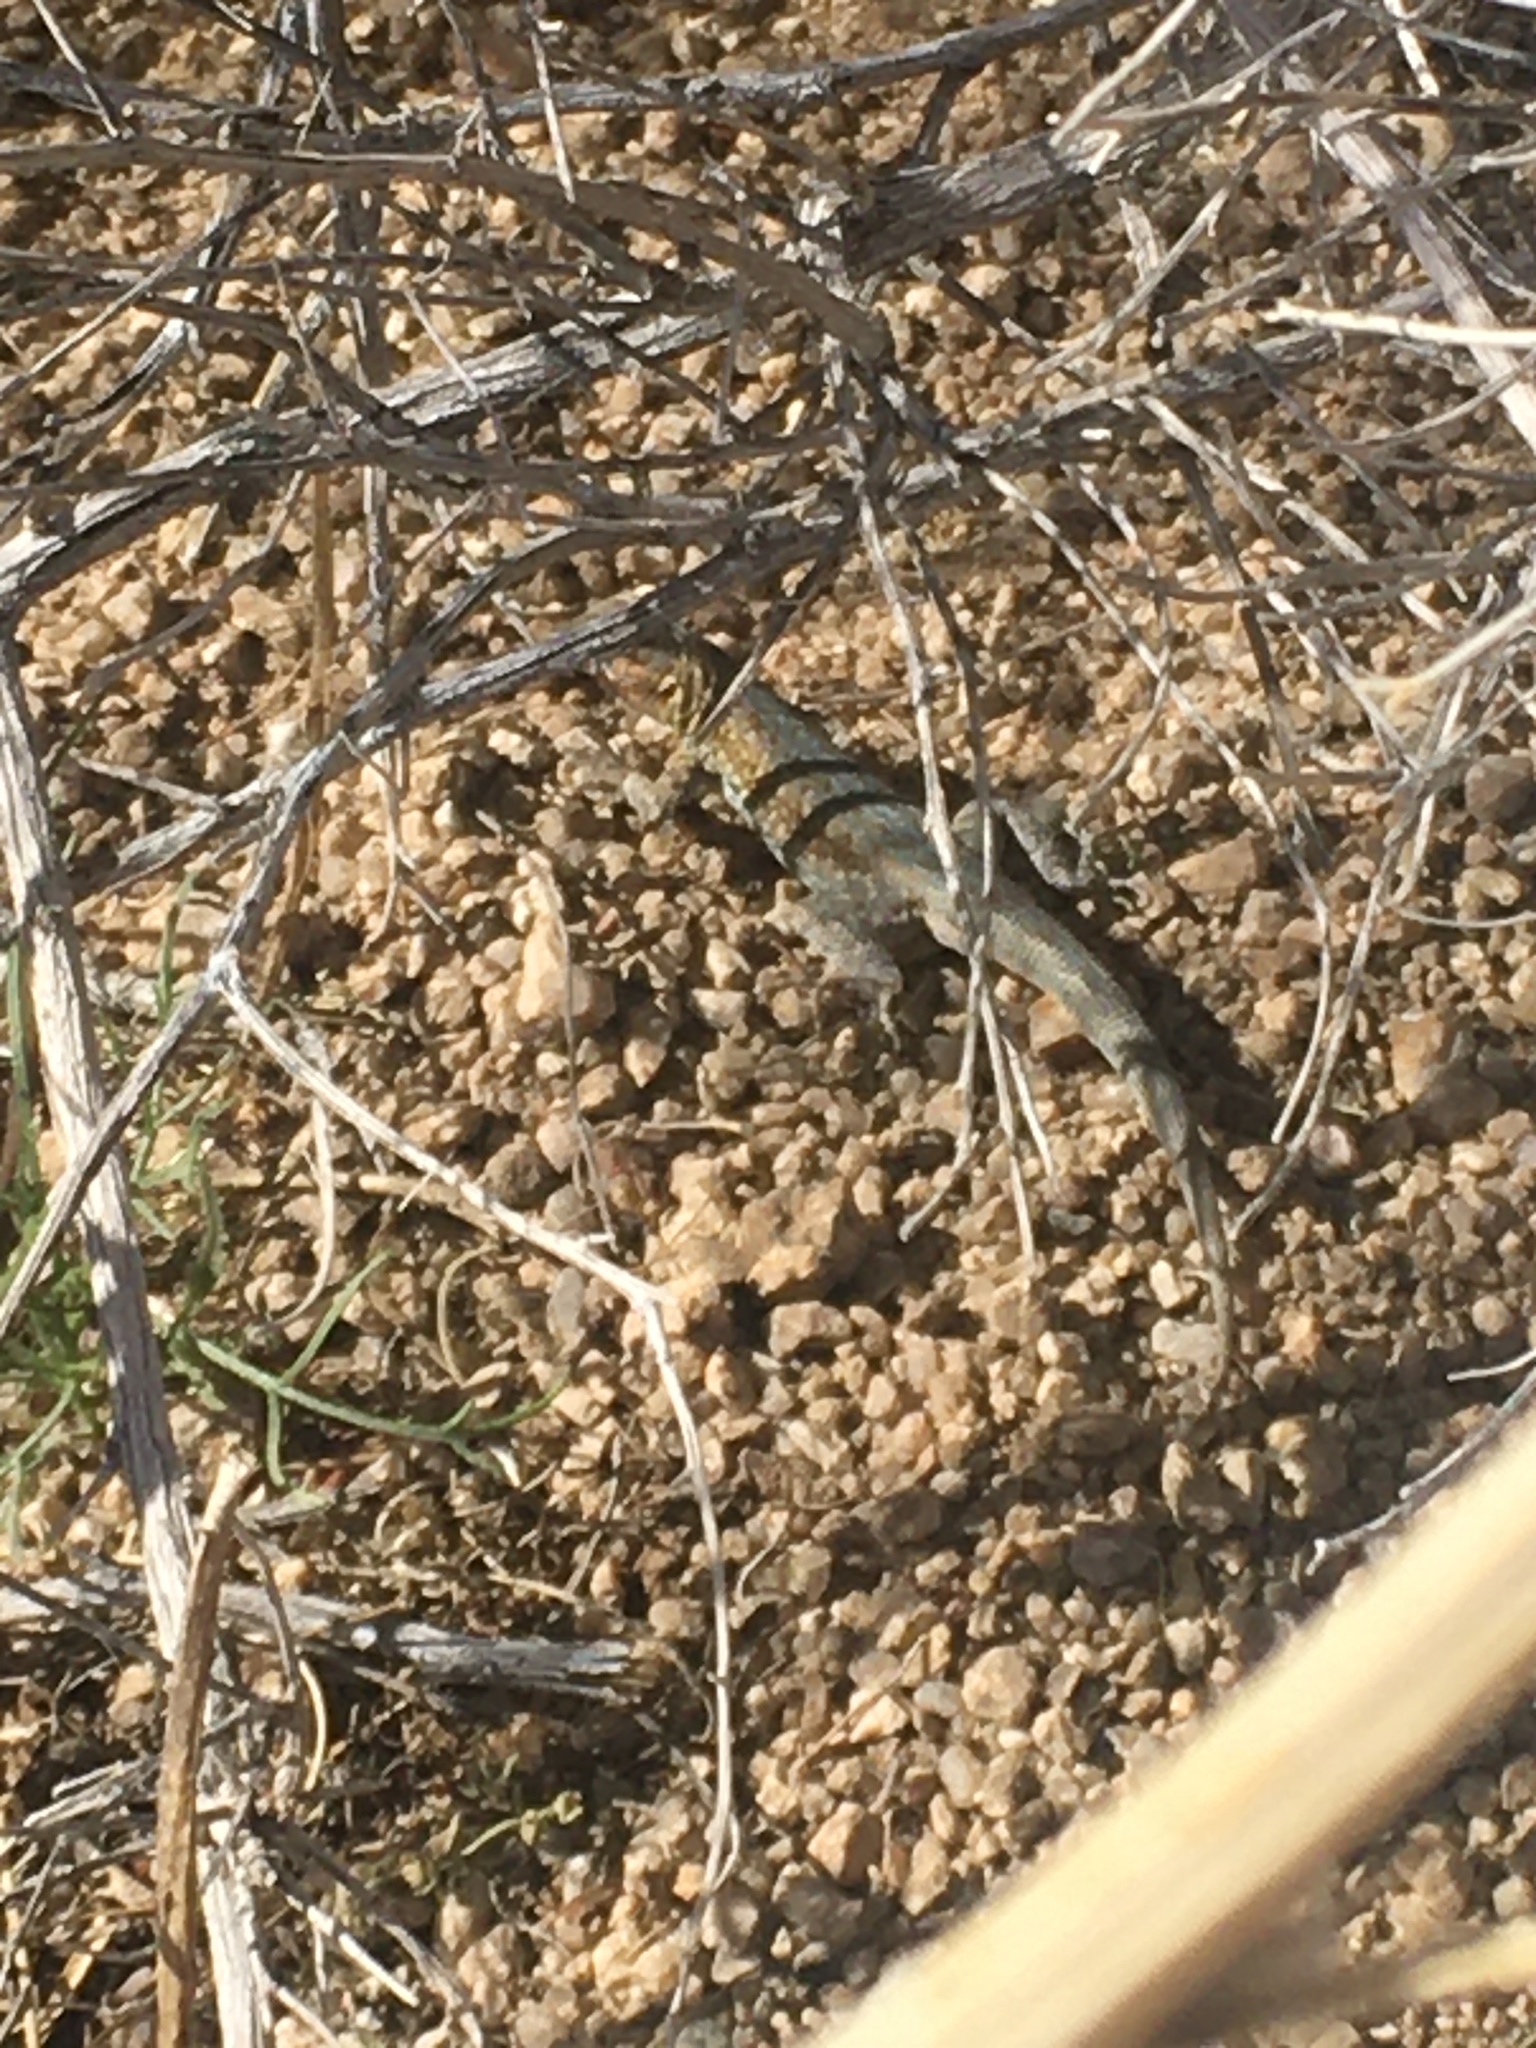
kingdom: Animalia
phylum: Chordata
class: Squamata
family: Phrynosomatidae
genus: Uta
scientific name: Uta stansburiana
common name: Side-blotched lizard
